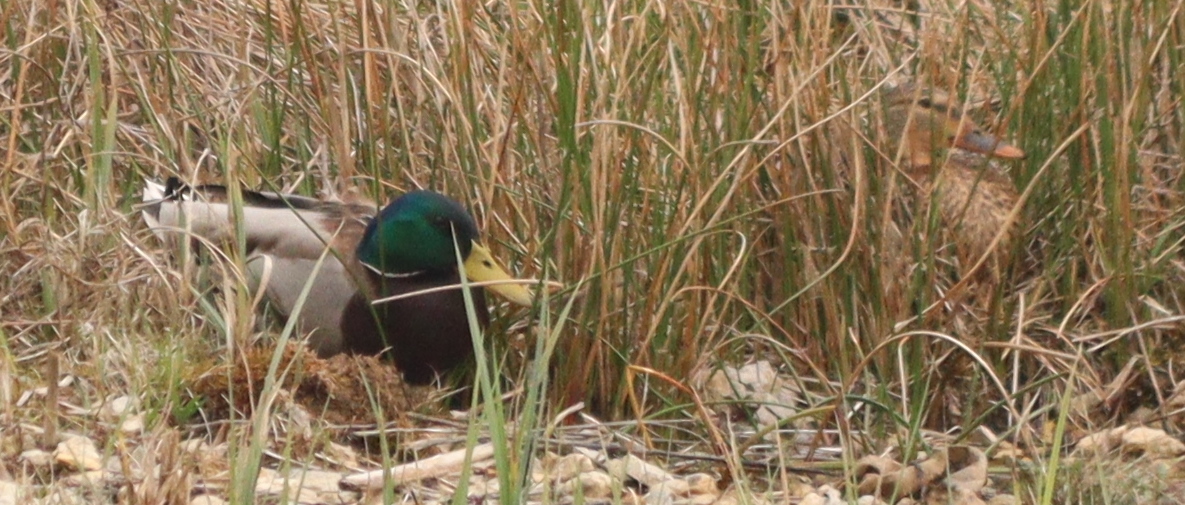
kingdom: Animalia
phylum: Chordata
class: Aves
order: Anseriformes
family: Anatidae
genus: Anas
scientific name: Anas platyrhynchos
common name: Mallard
